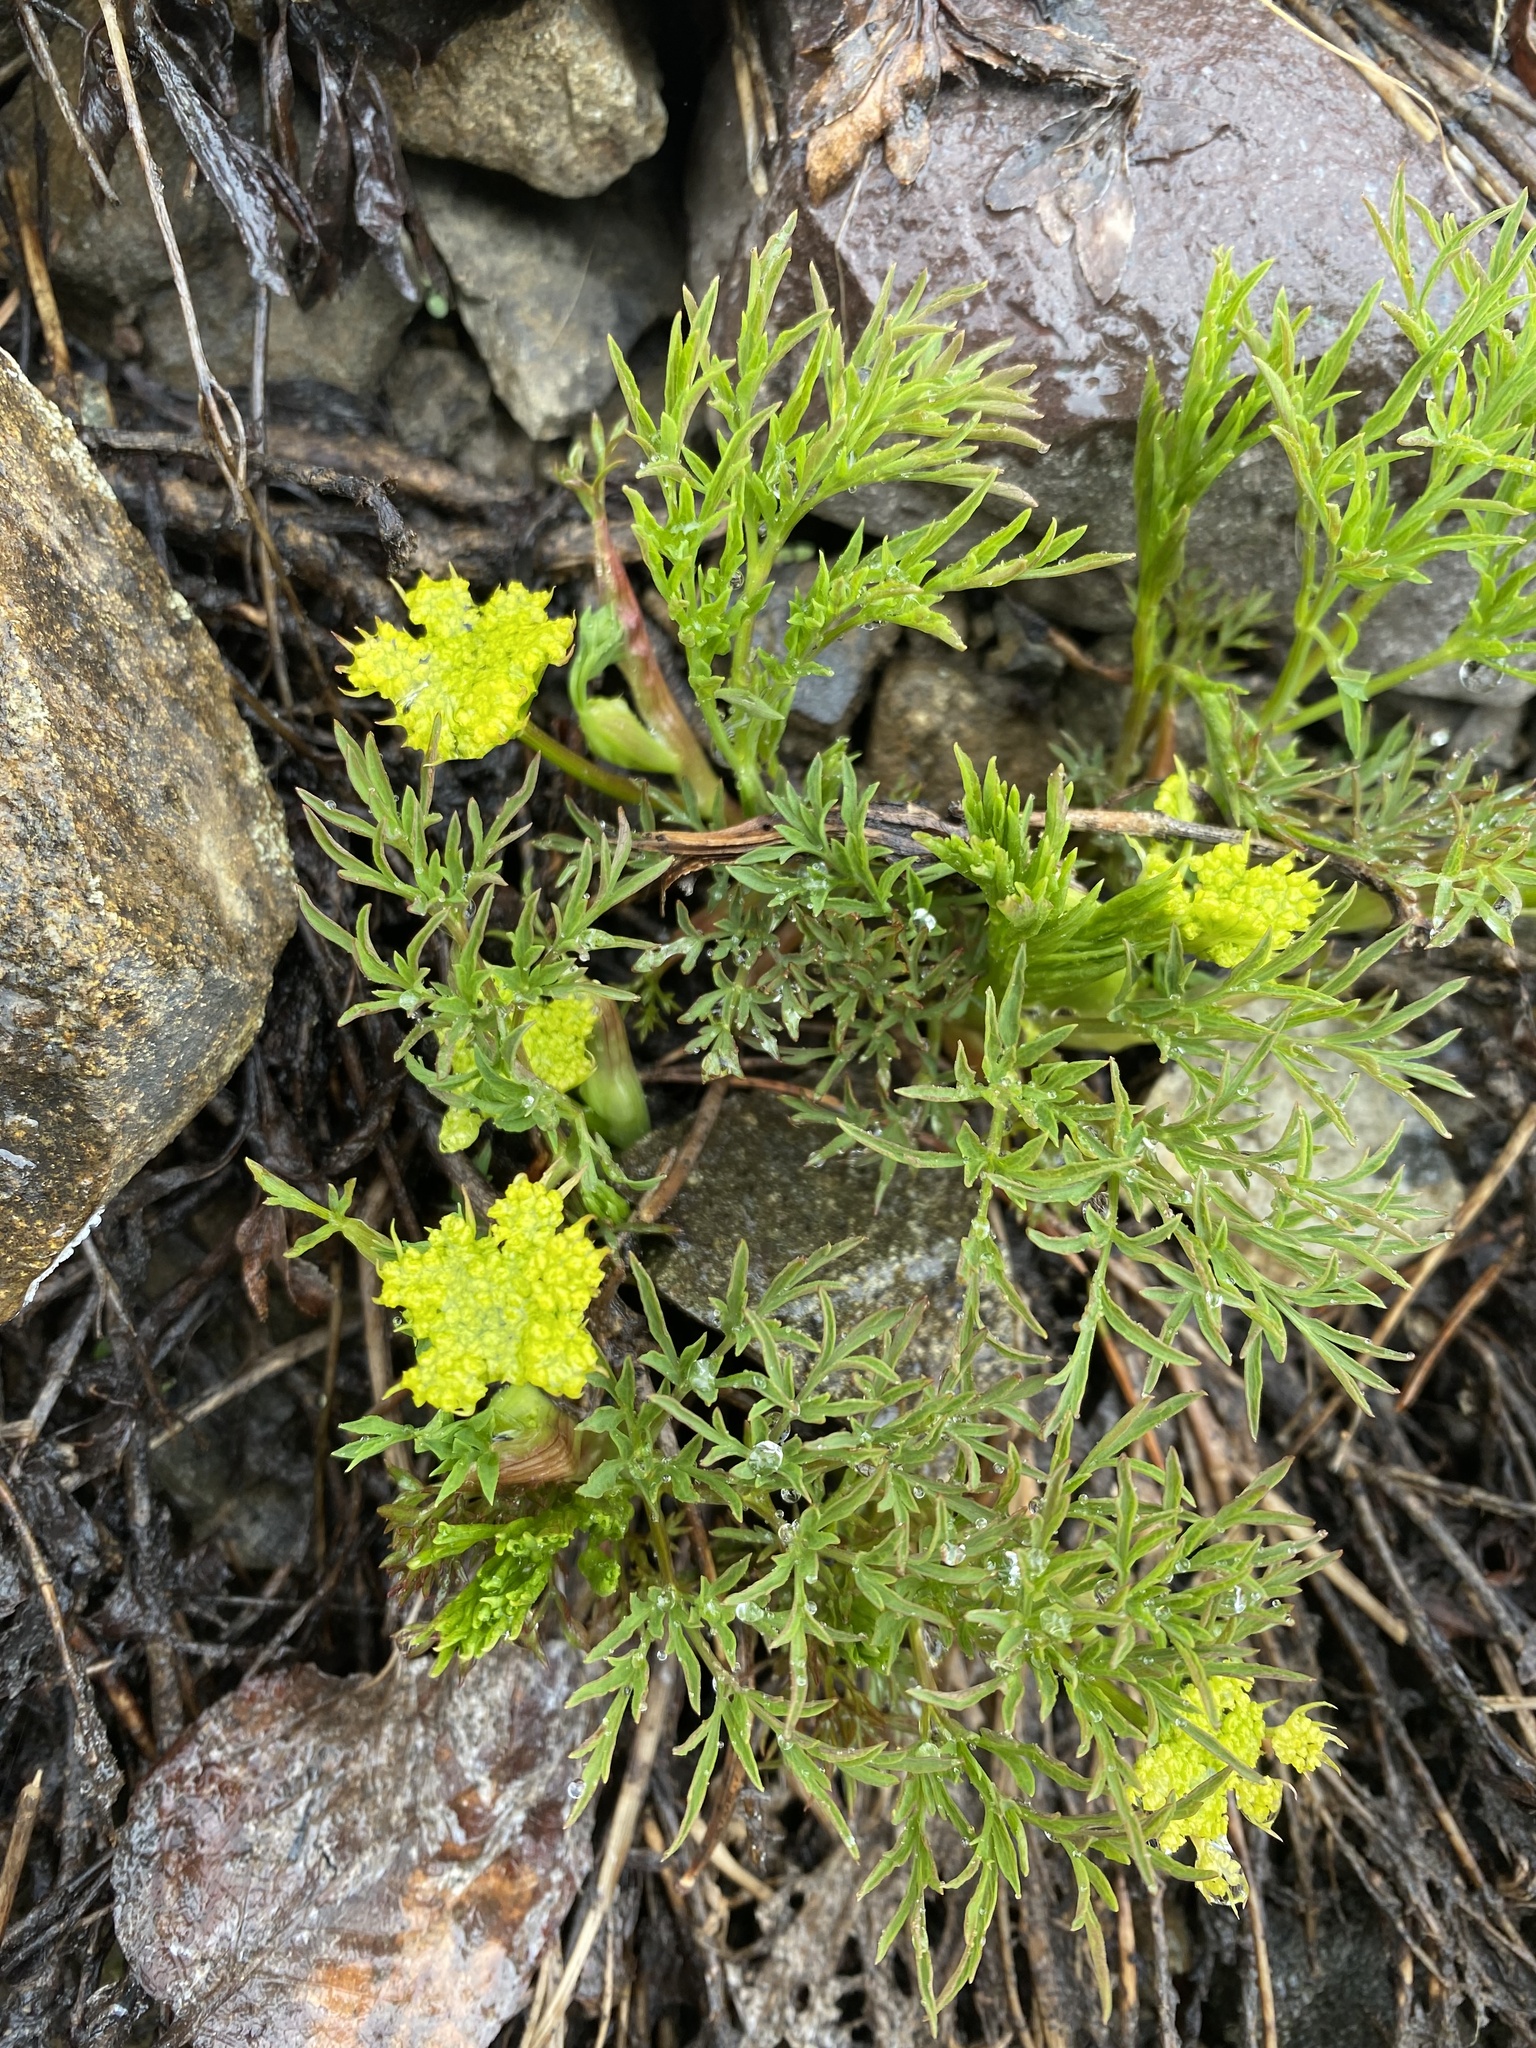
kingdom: Plantae
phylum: Tracheophyta
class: Magnoliopsida
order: Apiales
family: Apiaceae
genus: Lomatium
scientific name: Lomatium brandegeei
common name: Brandegee's desert-parsley
